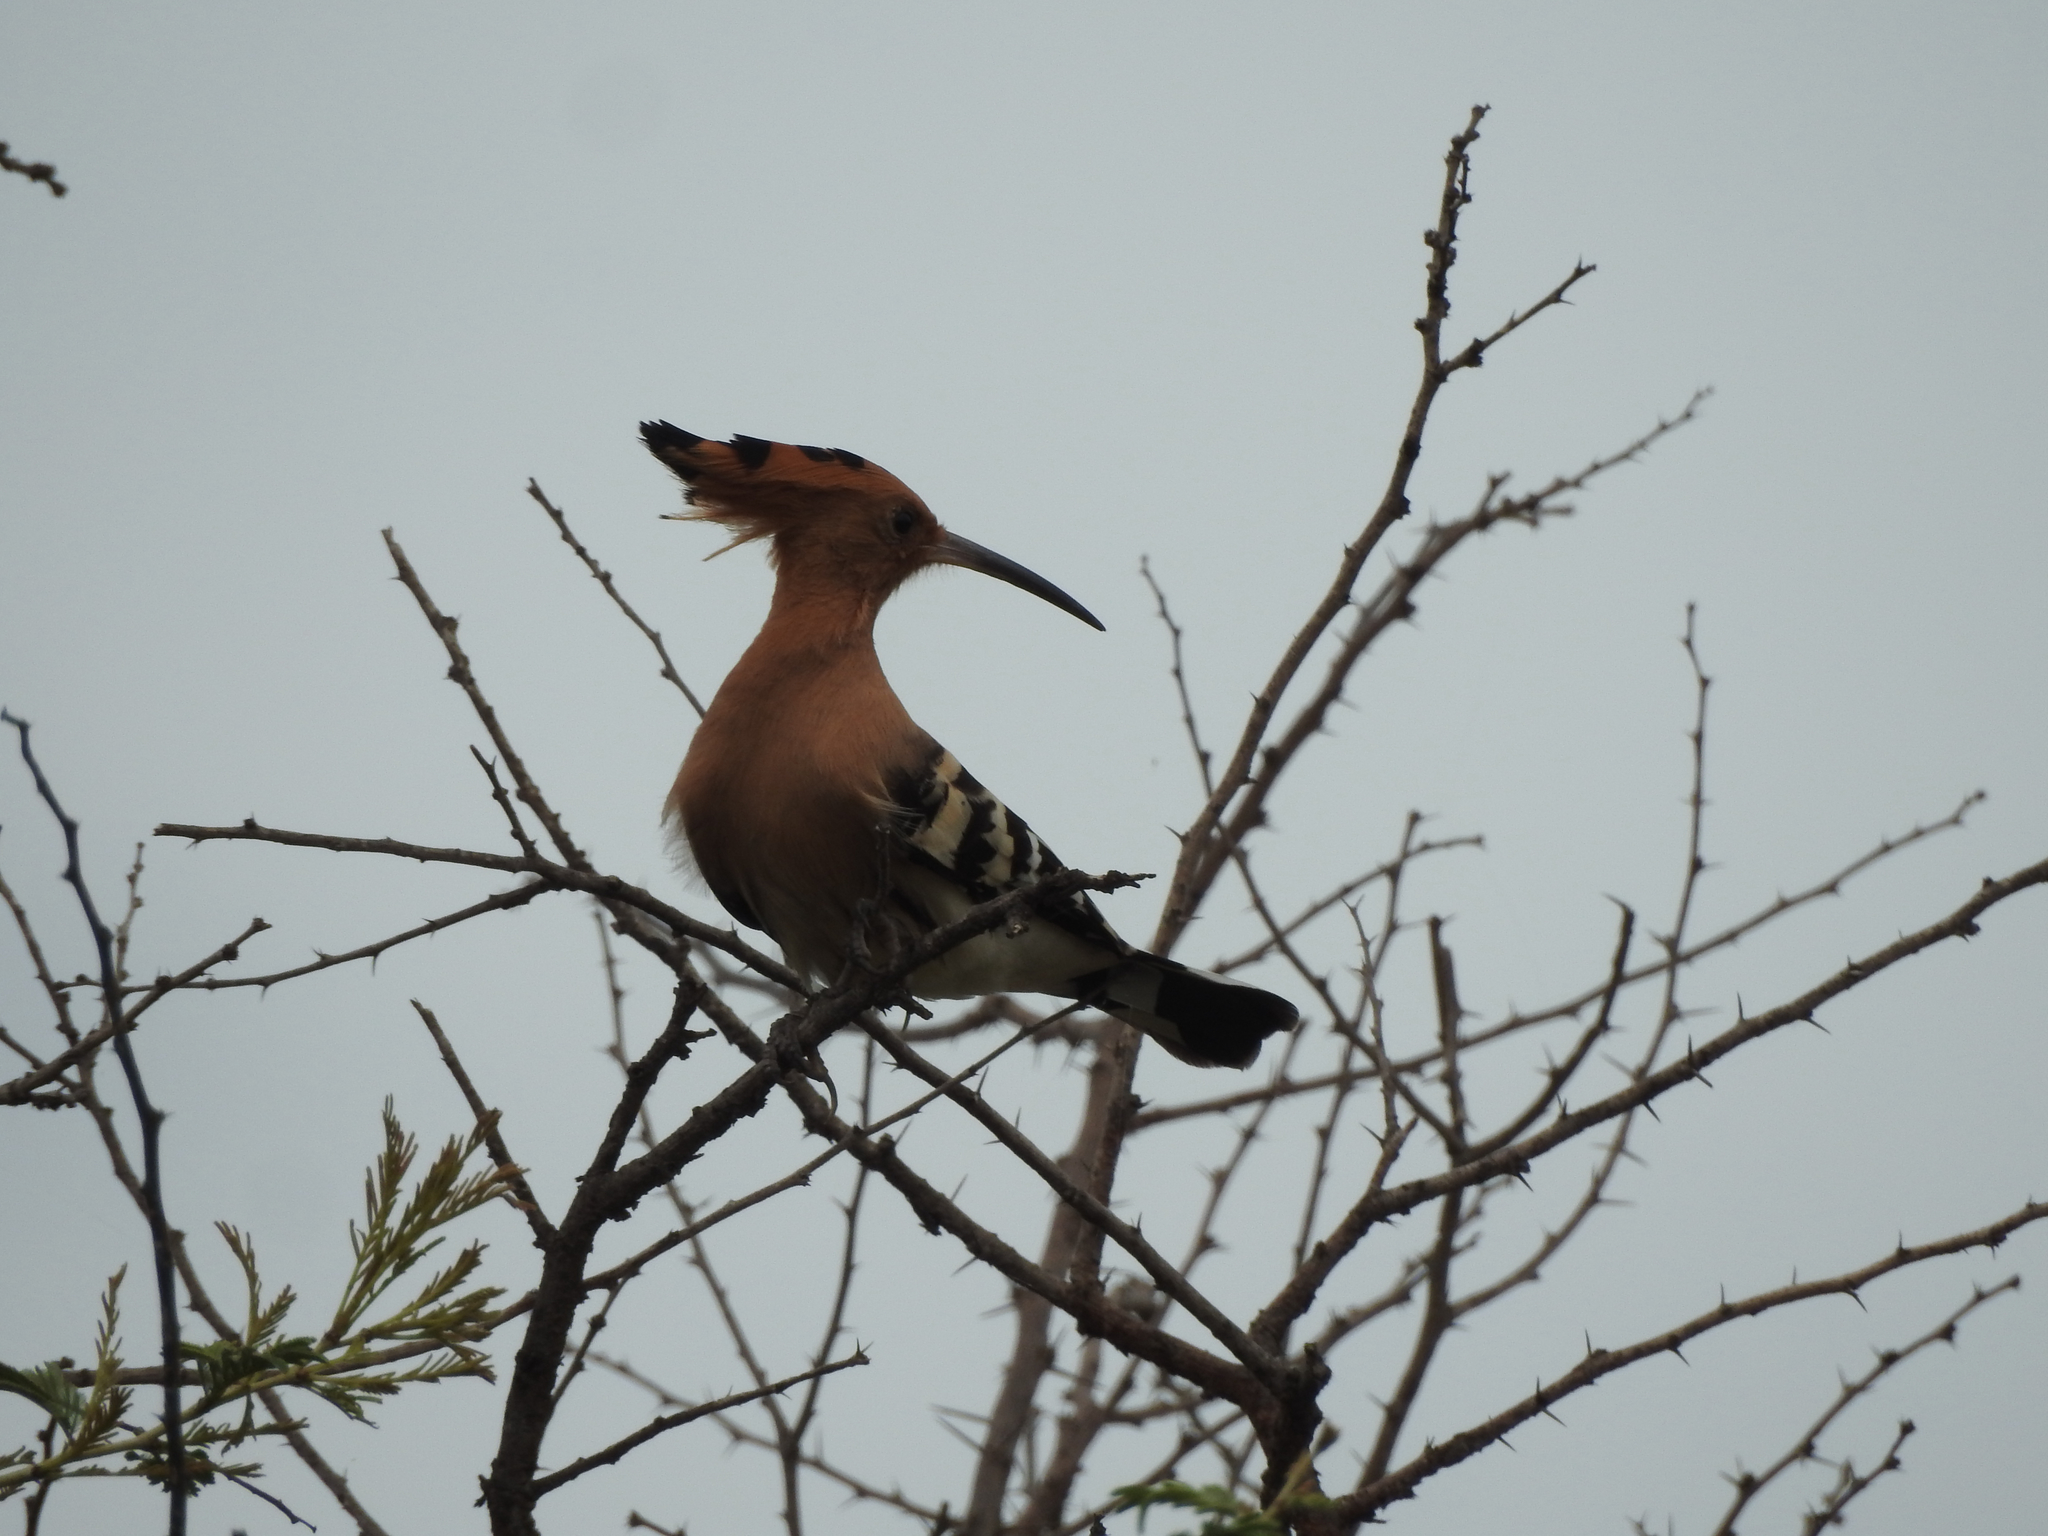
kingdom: Animalia
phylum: Chordata
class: Aves
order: Bucerotiformes
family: Upupidae
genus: Upupa
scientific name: Upupa epops
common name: Eurasian hoopoe
